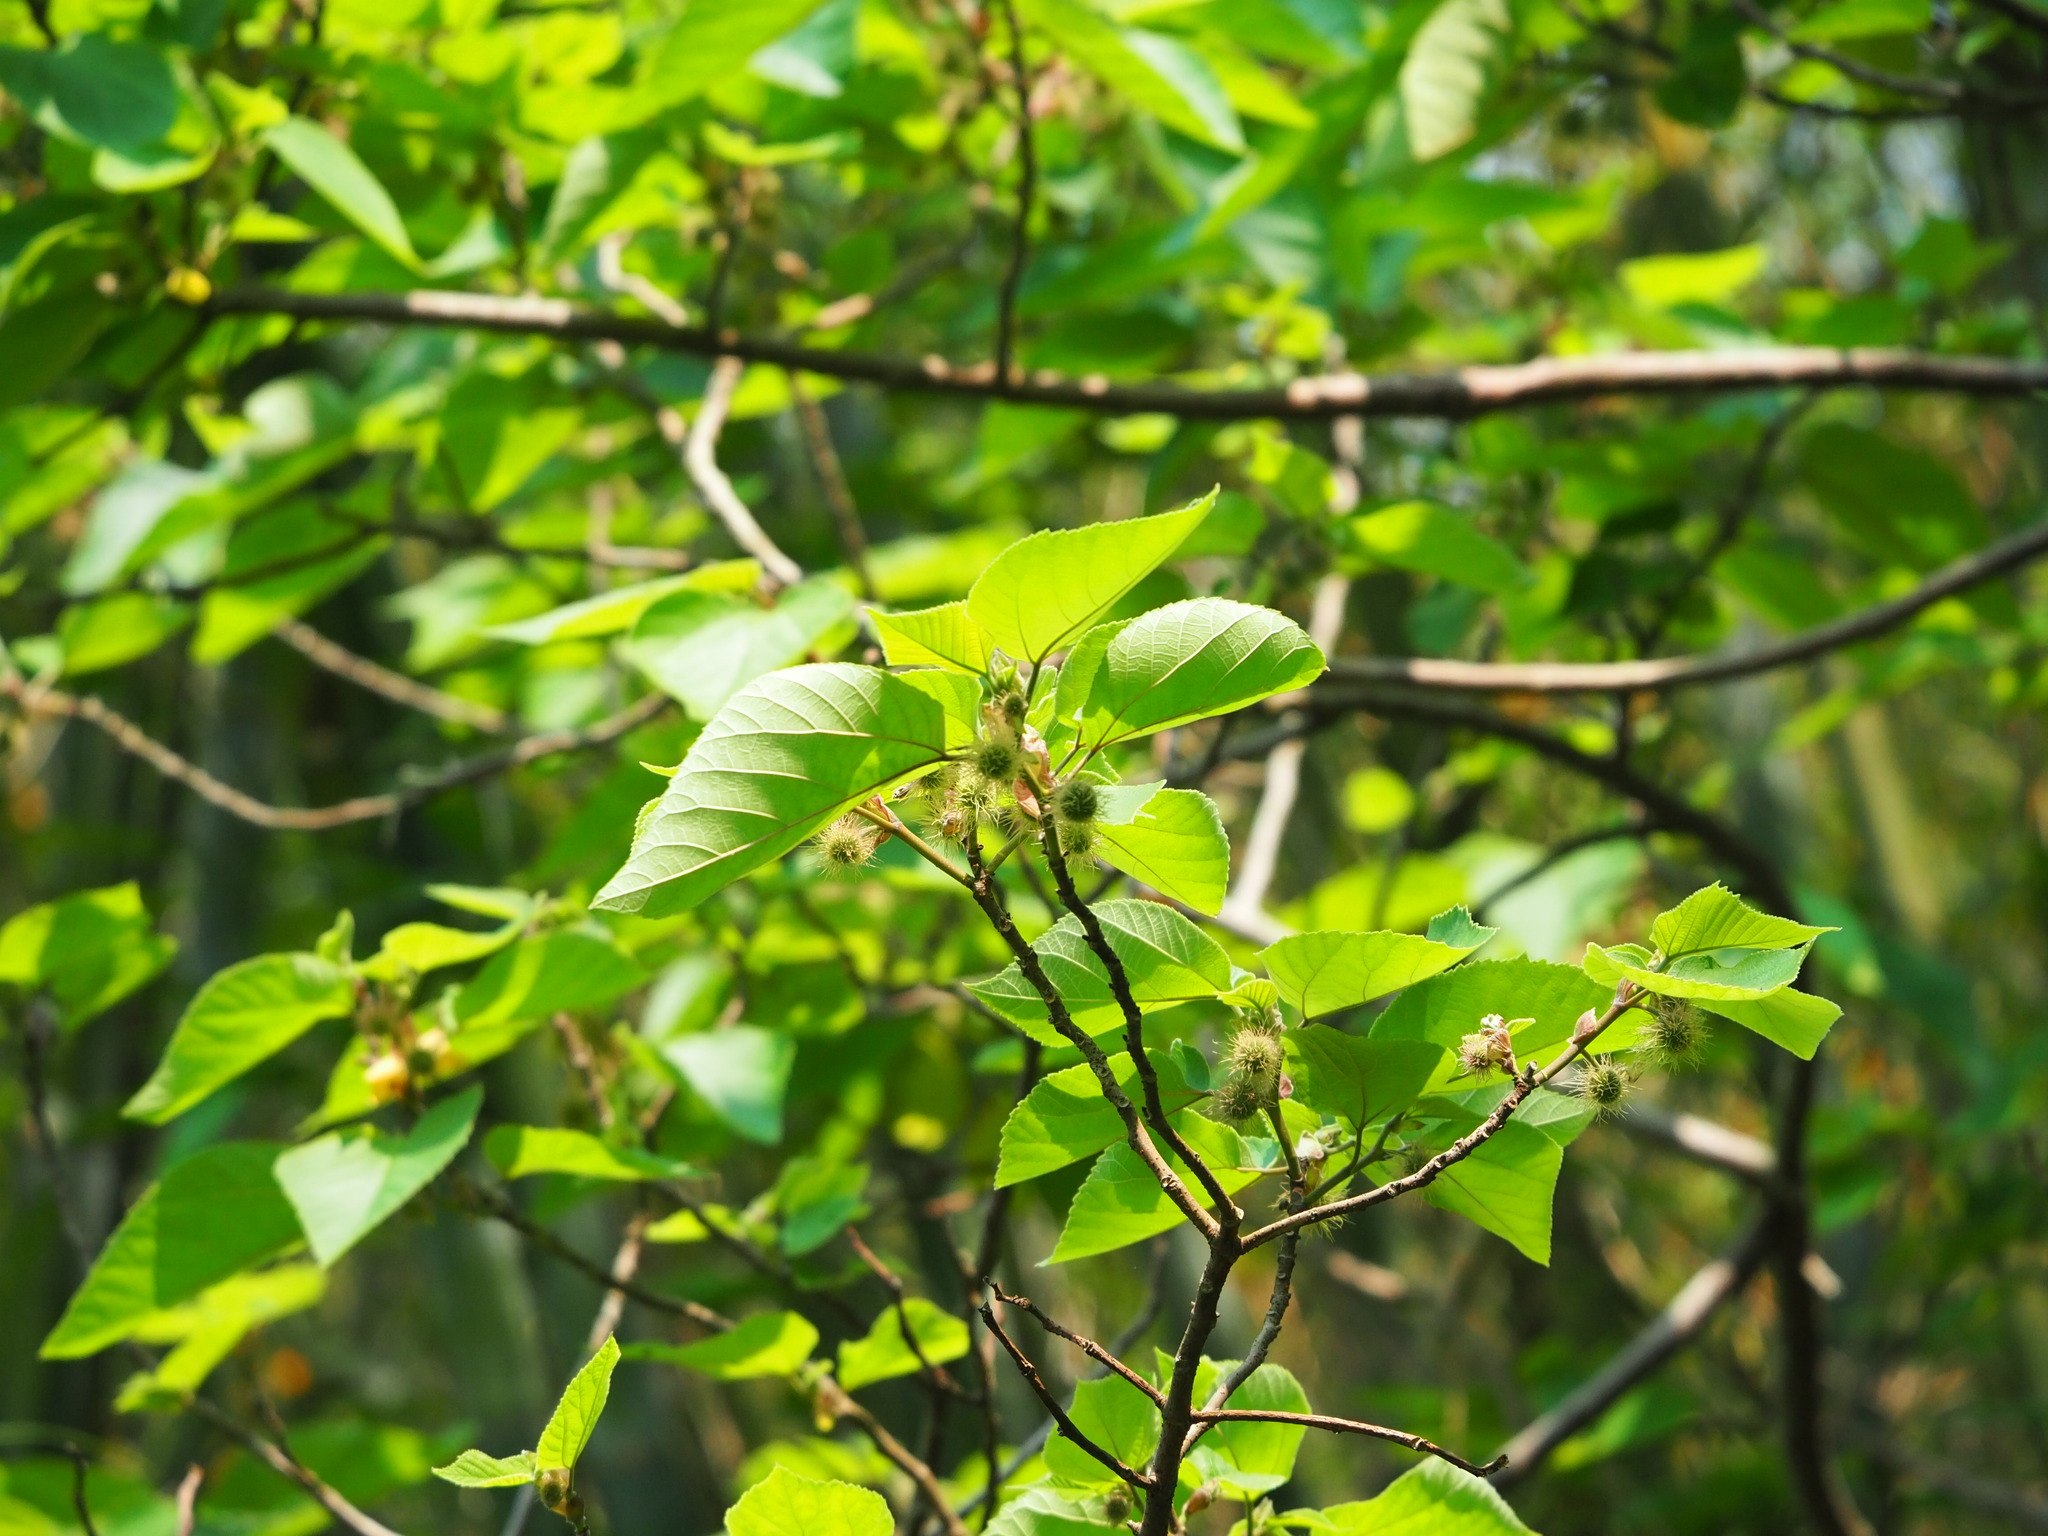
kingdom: Plantae
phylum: Tracheophyta
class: Magnoliopsida
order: Rosales
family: Moraceae
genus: Broussonetia
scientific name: Broussonetia papyrifera
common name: Paper mulberry
